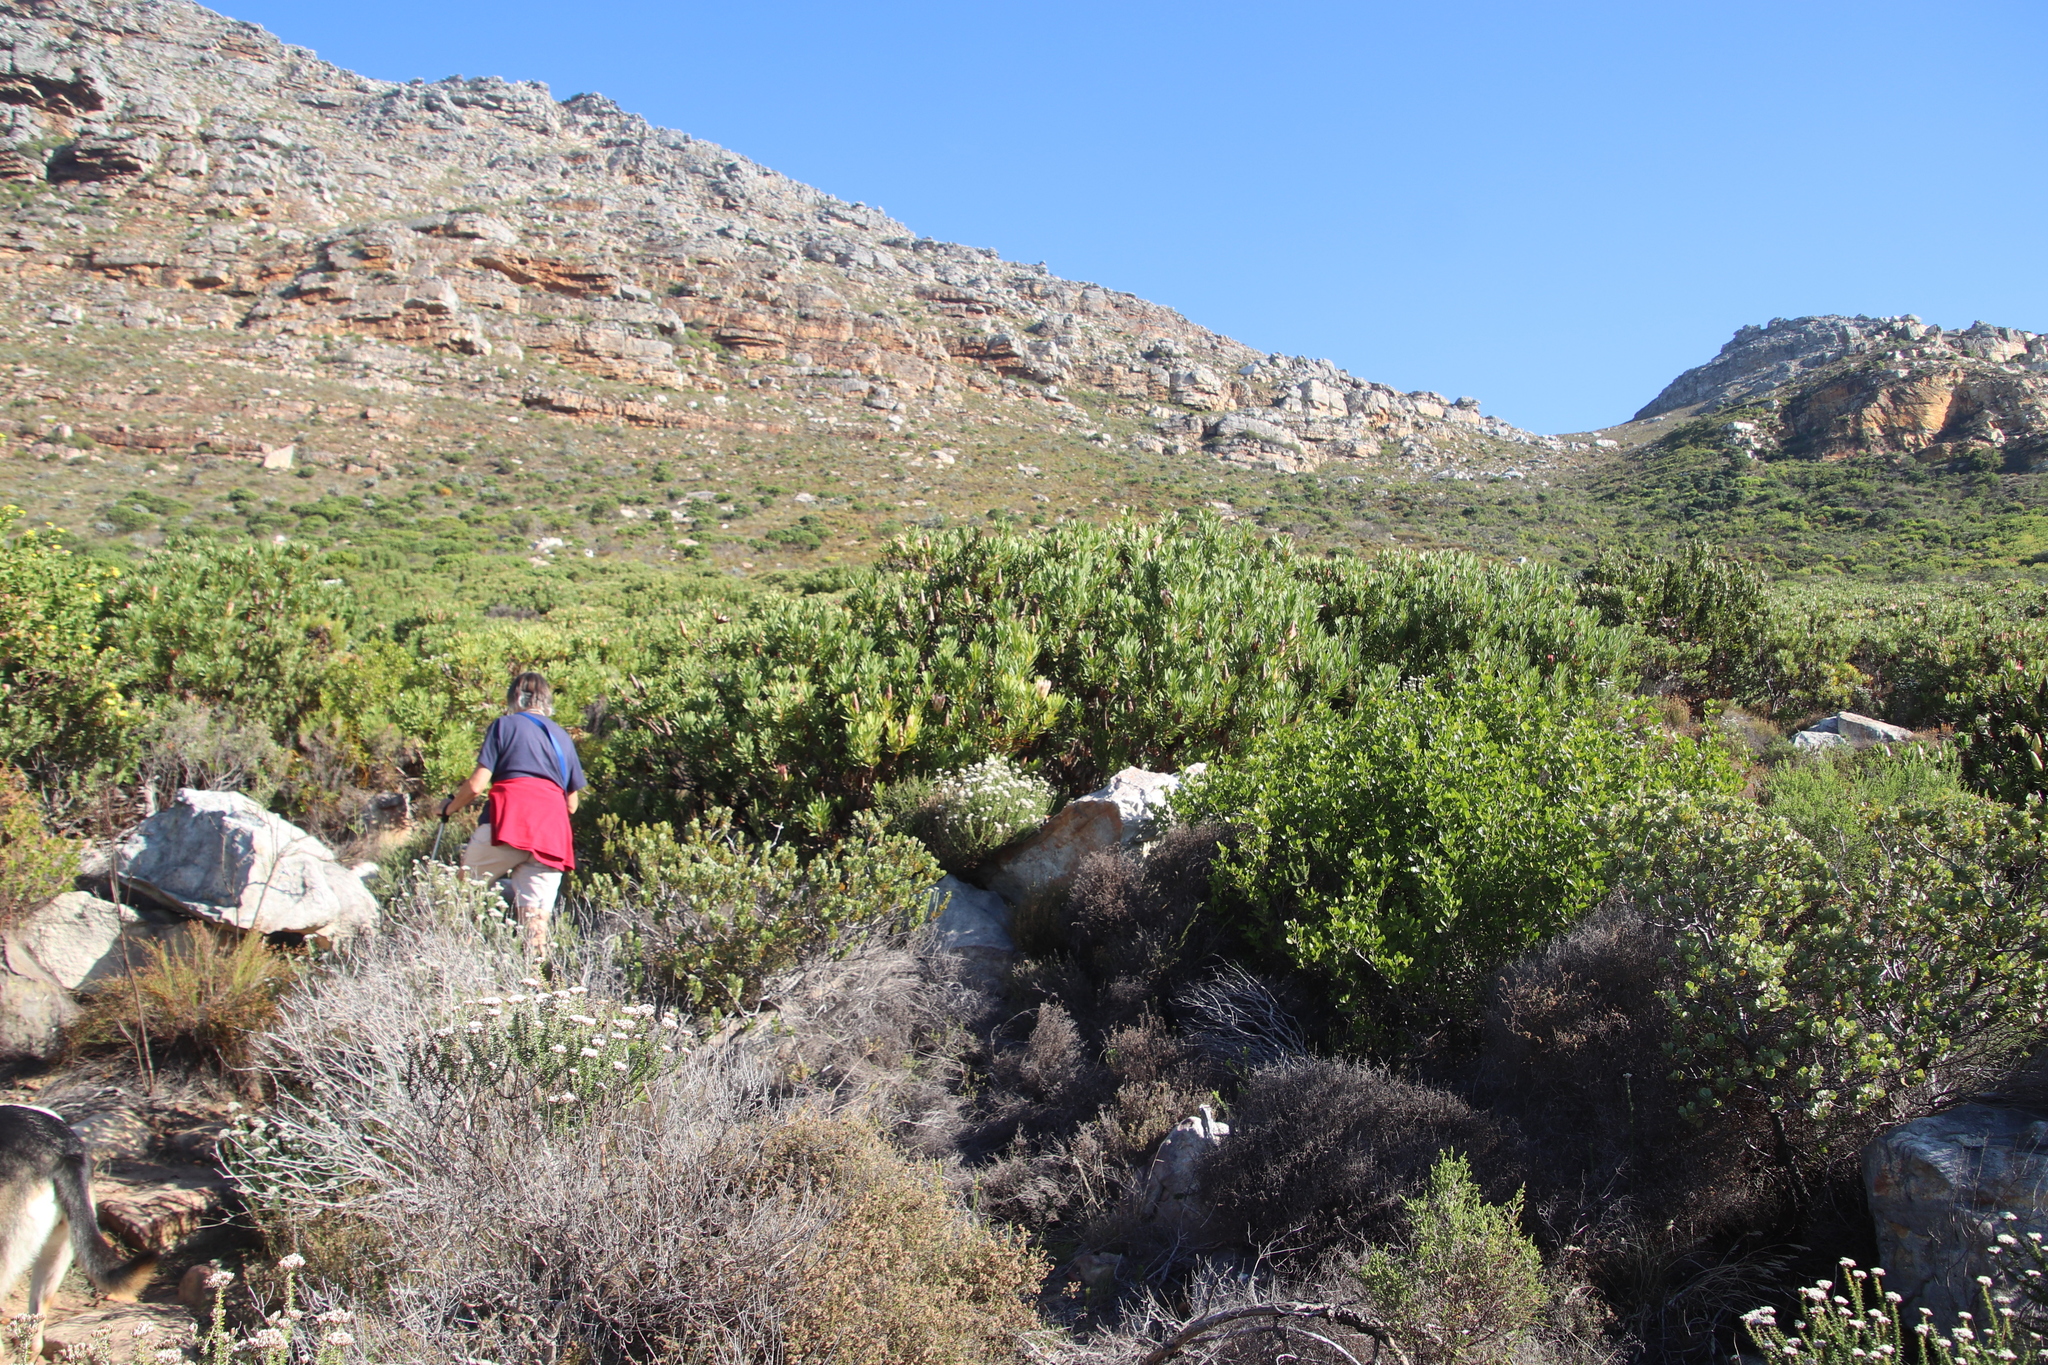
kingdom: Plantae
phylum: Tracheophyta
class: Magnoliopsida
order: Proteales
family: Proteaceae
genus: Protea
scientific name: Protea repens
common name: Sugarbush
